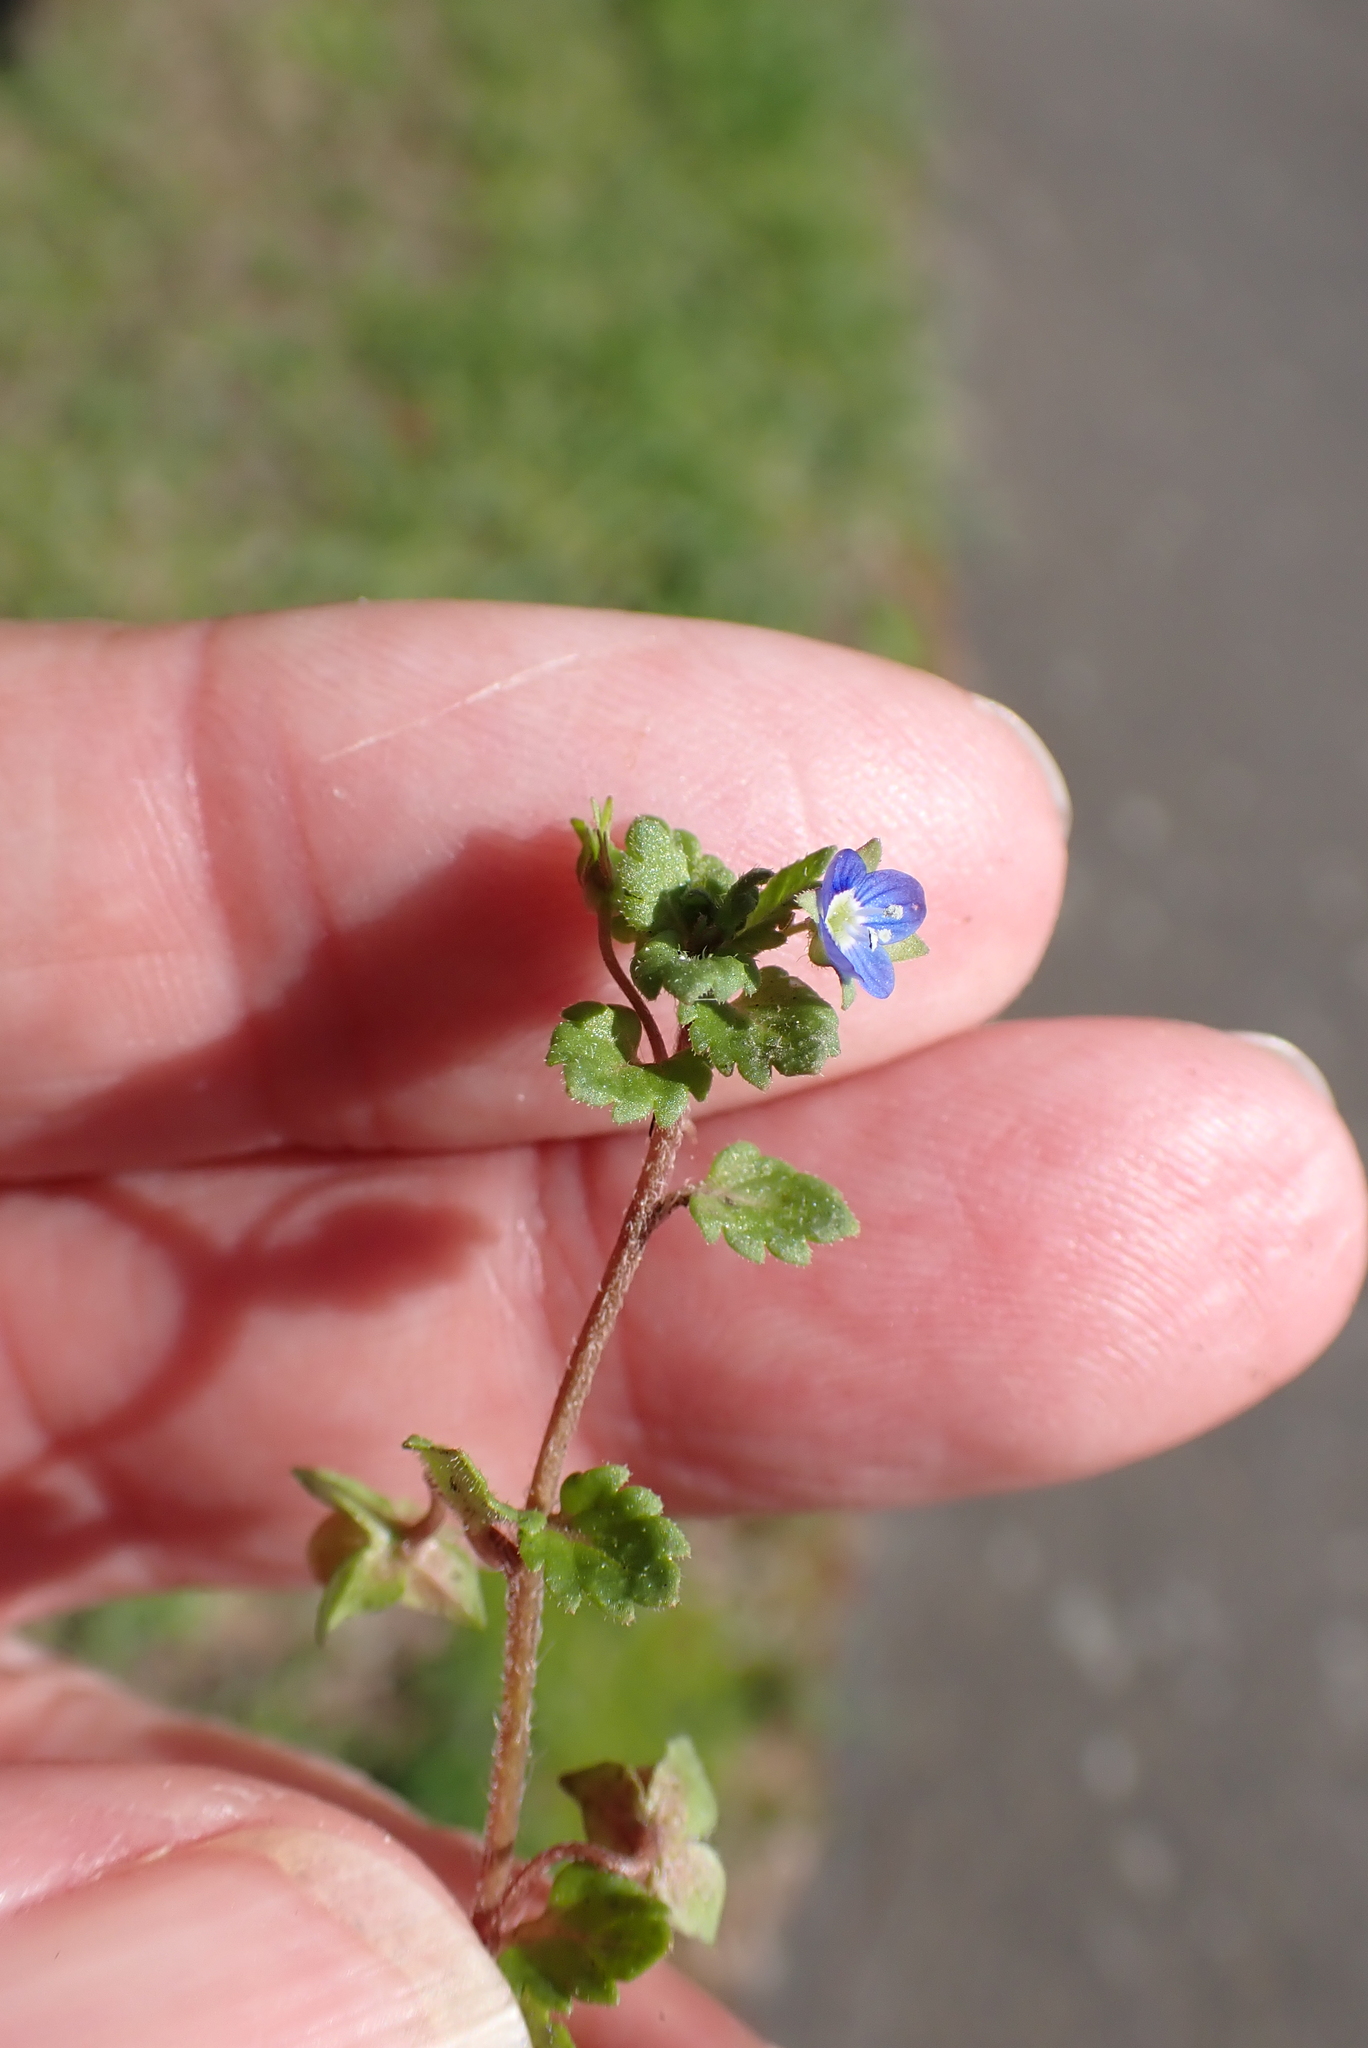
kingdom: Plantae
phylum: Tracheophyta
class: Magnoliopsida
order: Lamiales
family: Plantaginaceae
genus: Veronica
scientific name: Veronica polita
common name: Grey field-speedwell
